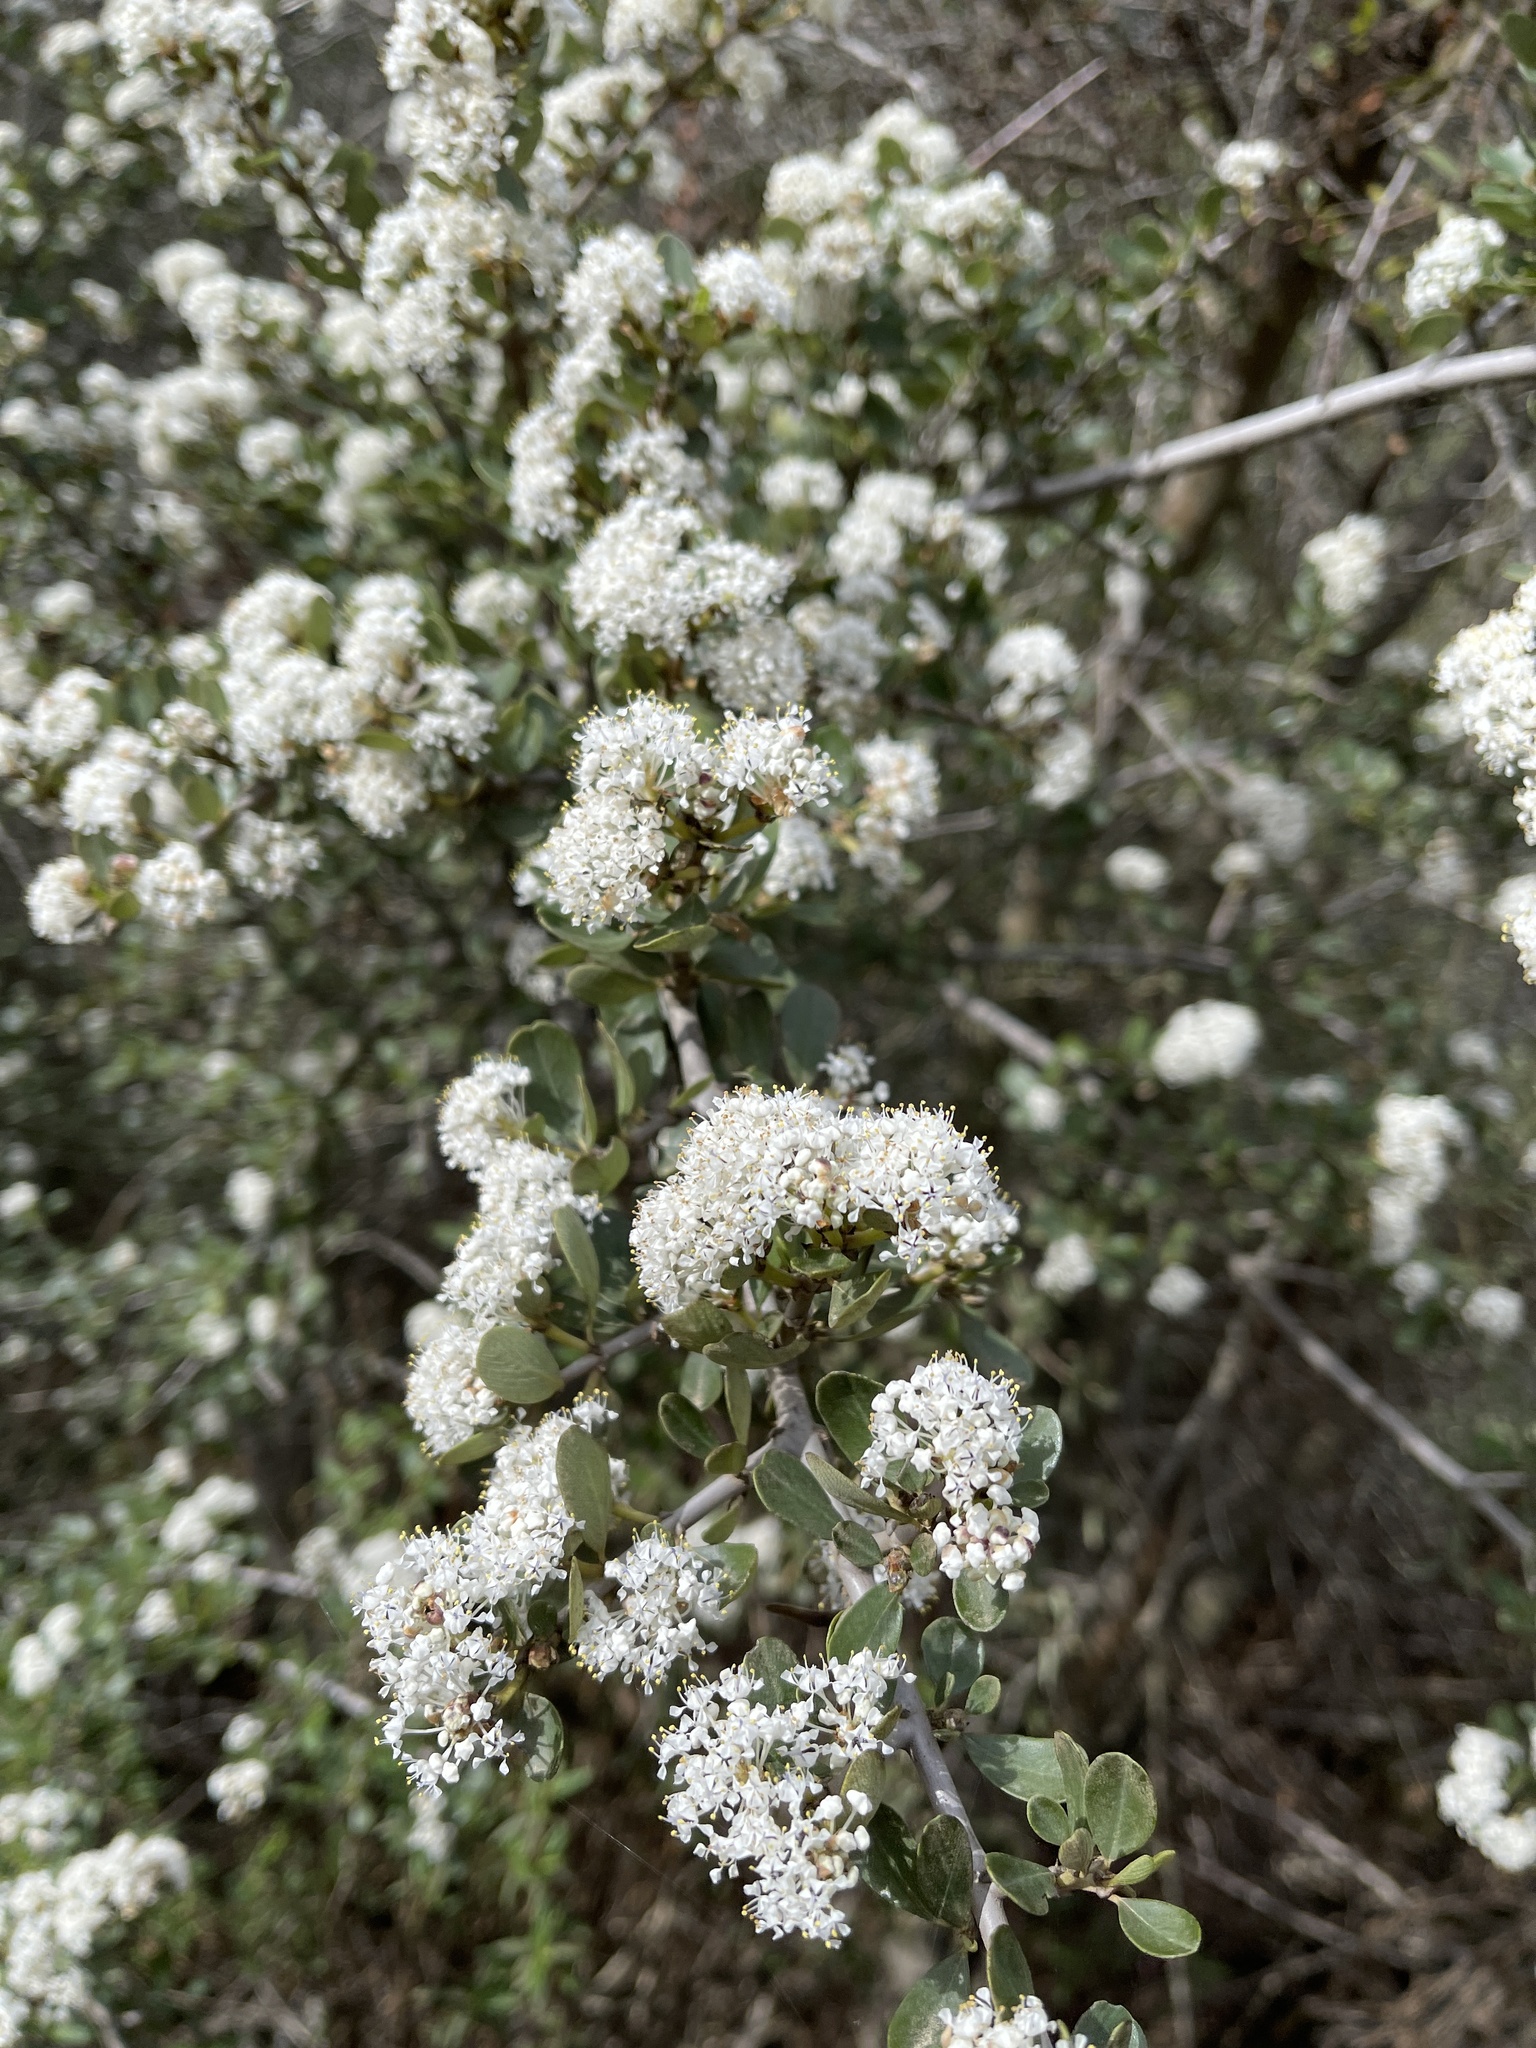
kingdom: Plantae
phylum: Tracheophyta
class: Magnoliopsida
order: Rosales
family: Rhamnaceae
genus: Ceanothus
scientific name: Ceanothus cuneatus
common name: Cuneate ceanothus
